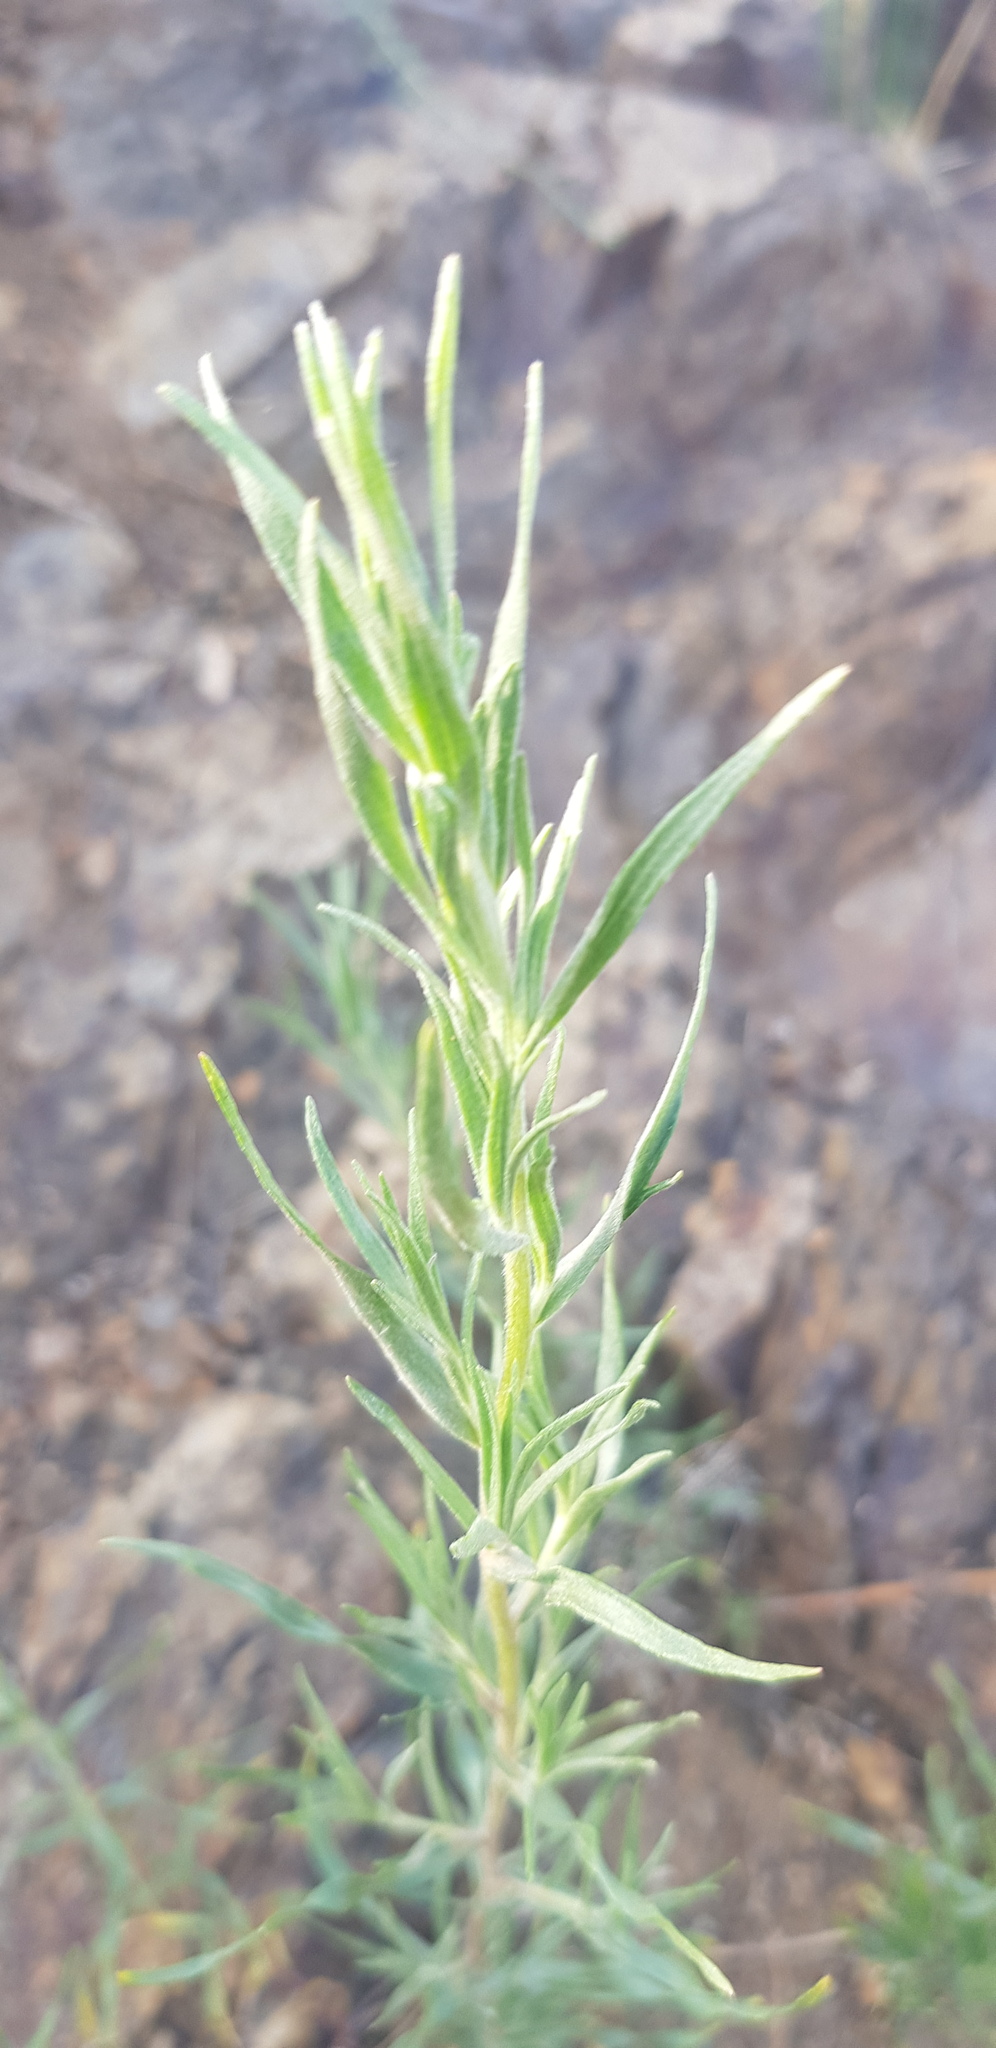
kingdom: Plantae
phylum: Tracheophyta
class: Magnoliopsida
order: Asterales
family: Asteraceae
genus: Artemisia
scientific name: Artemisia dracunculus
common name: Tarragon
